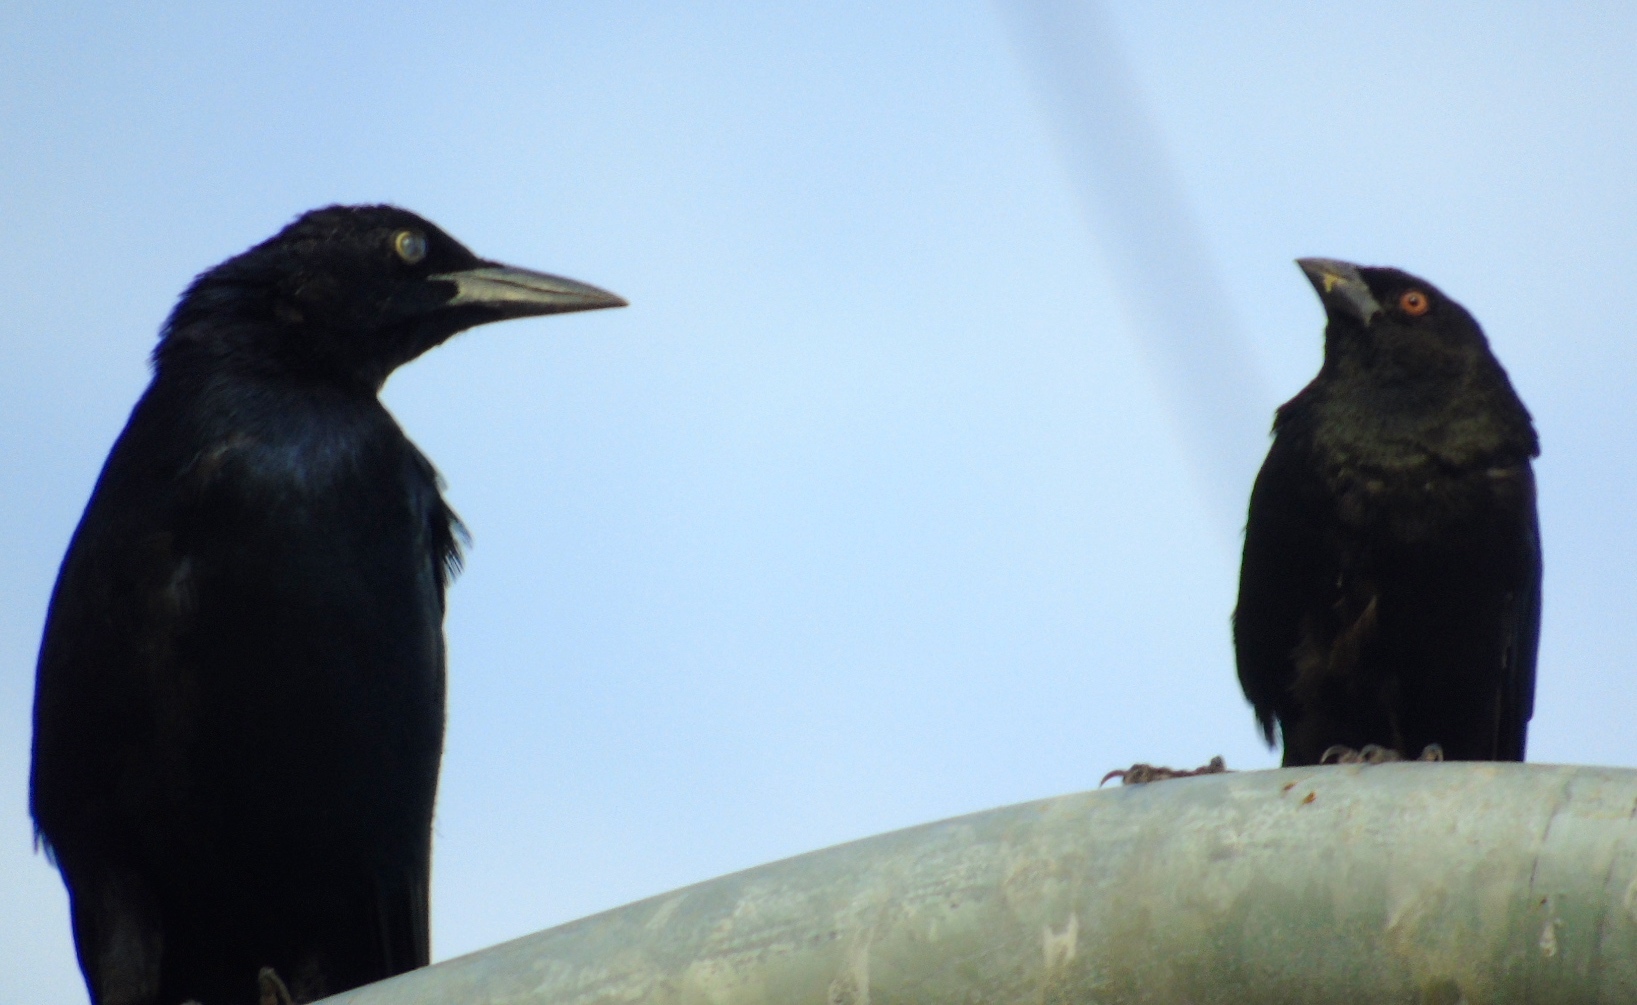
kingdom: Animalia
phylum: Chordata
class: Aves
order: Passeriformes
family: Icteridae
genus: Molothrus
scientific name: Molothrus aeneus
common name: Bronzed cowbird
